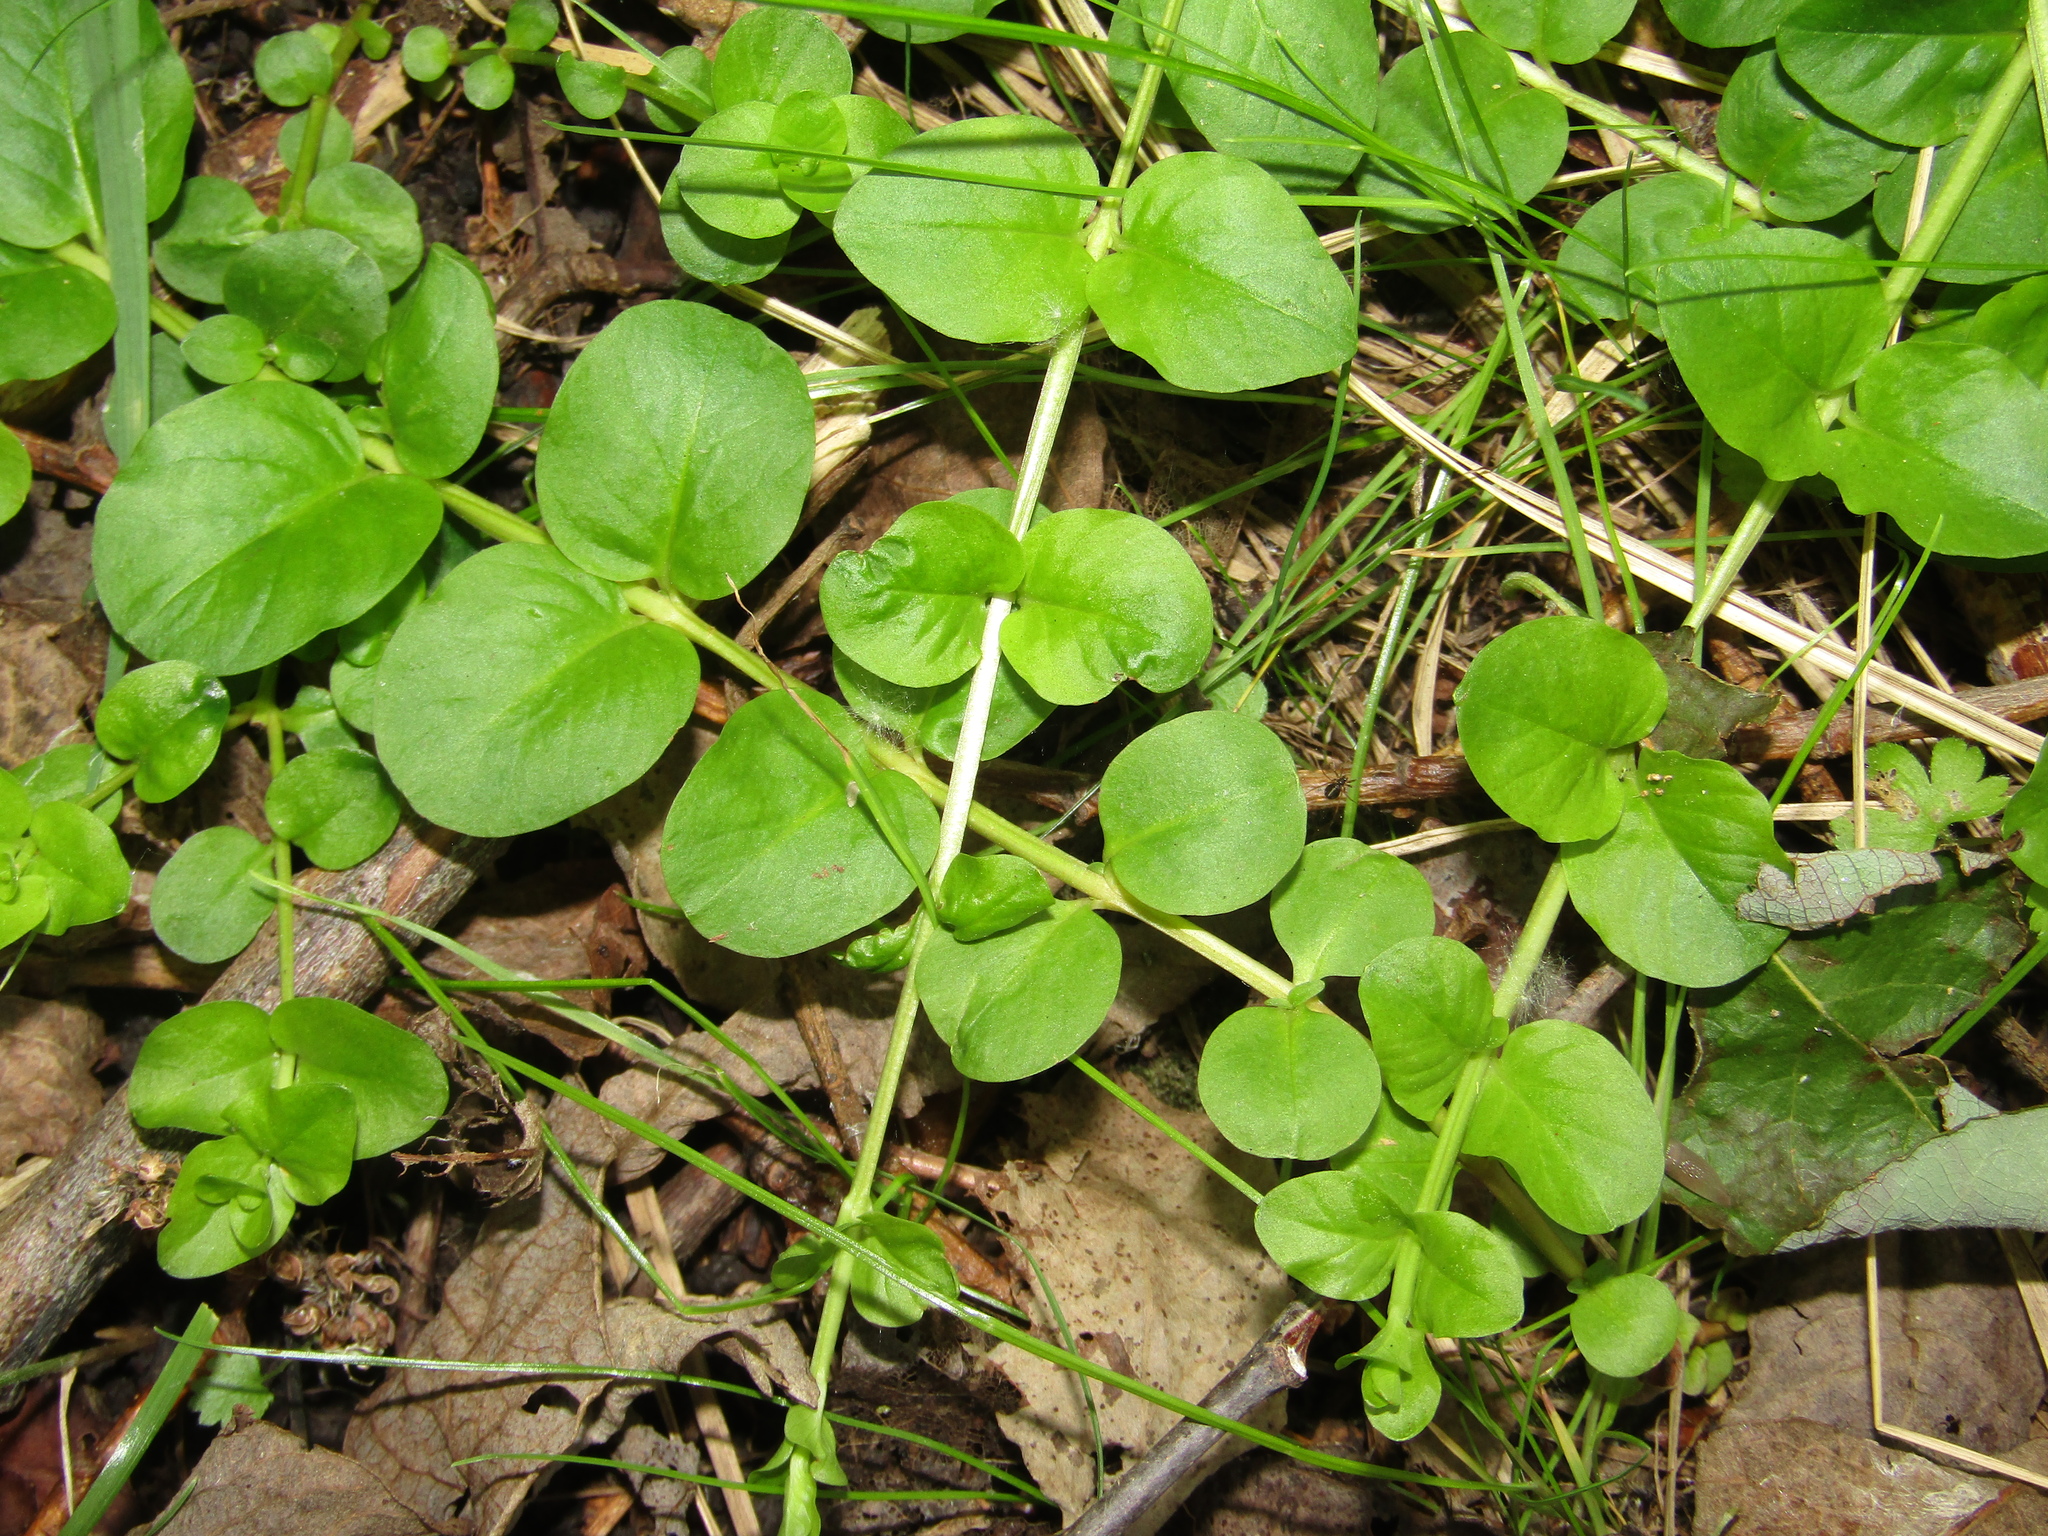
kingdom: Plantae
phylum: Tracheophyta
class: Magnoliopsida
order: Ericales
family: Primulaceae
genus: Lysimachia
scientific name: Lysimachia nummularia
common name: Moneywort
